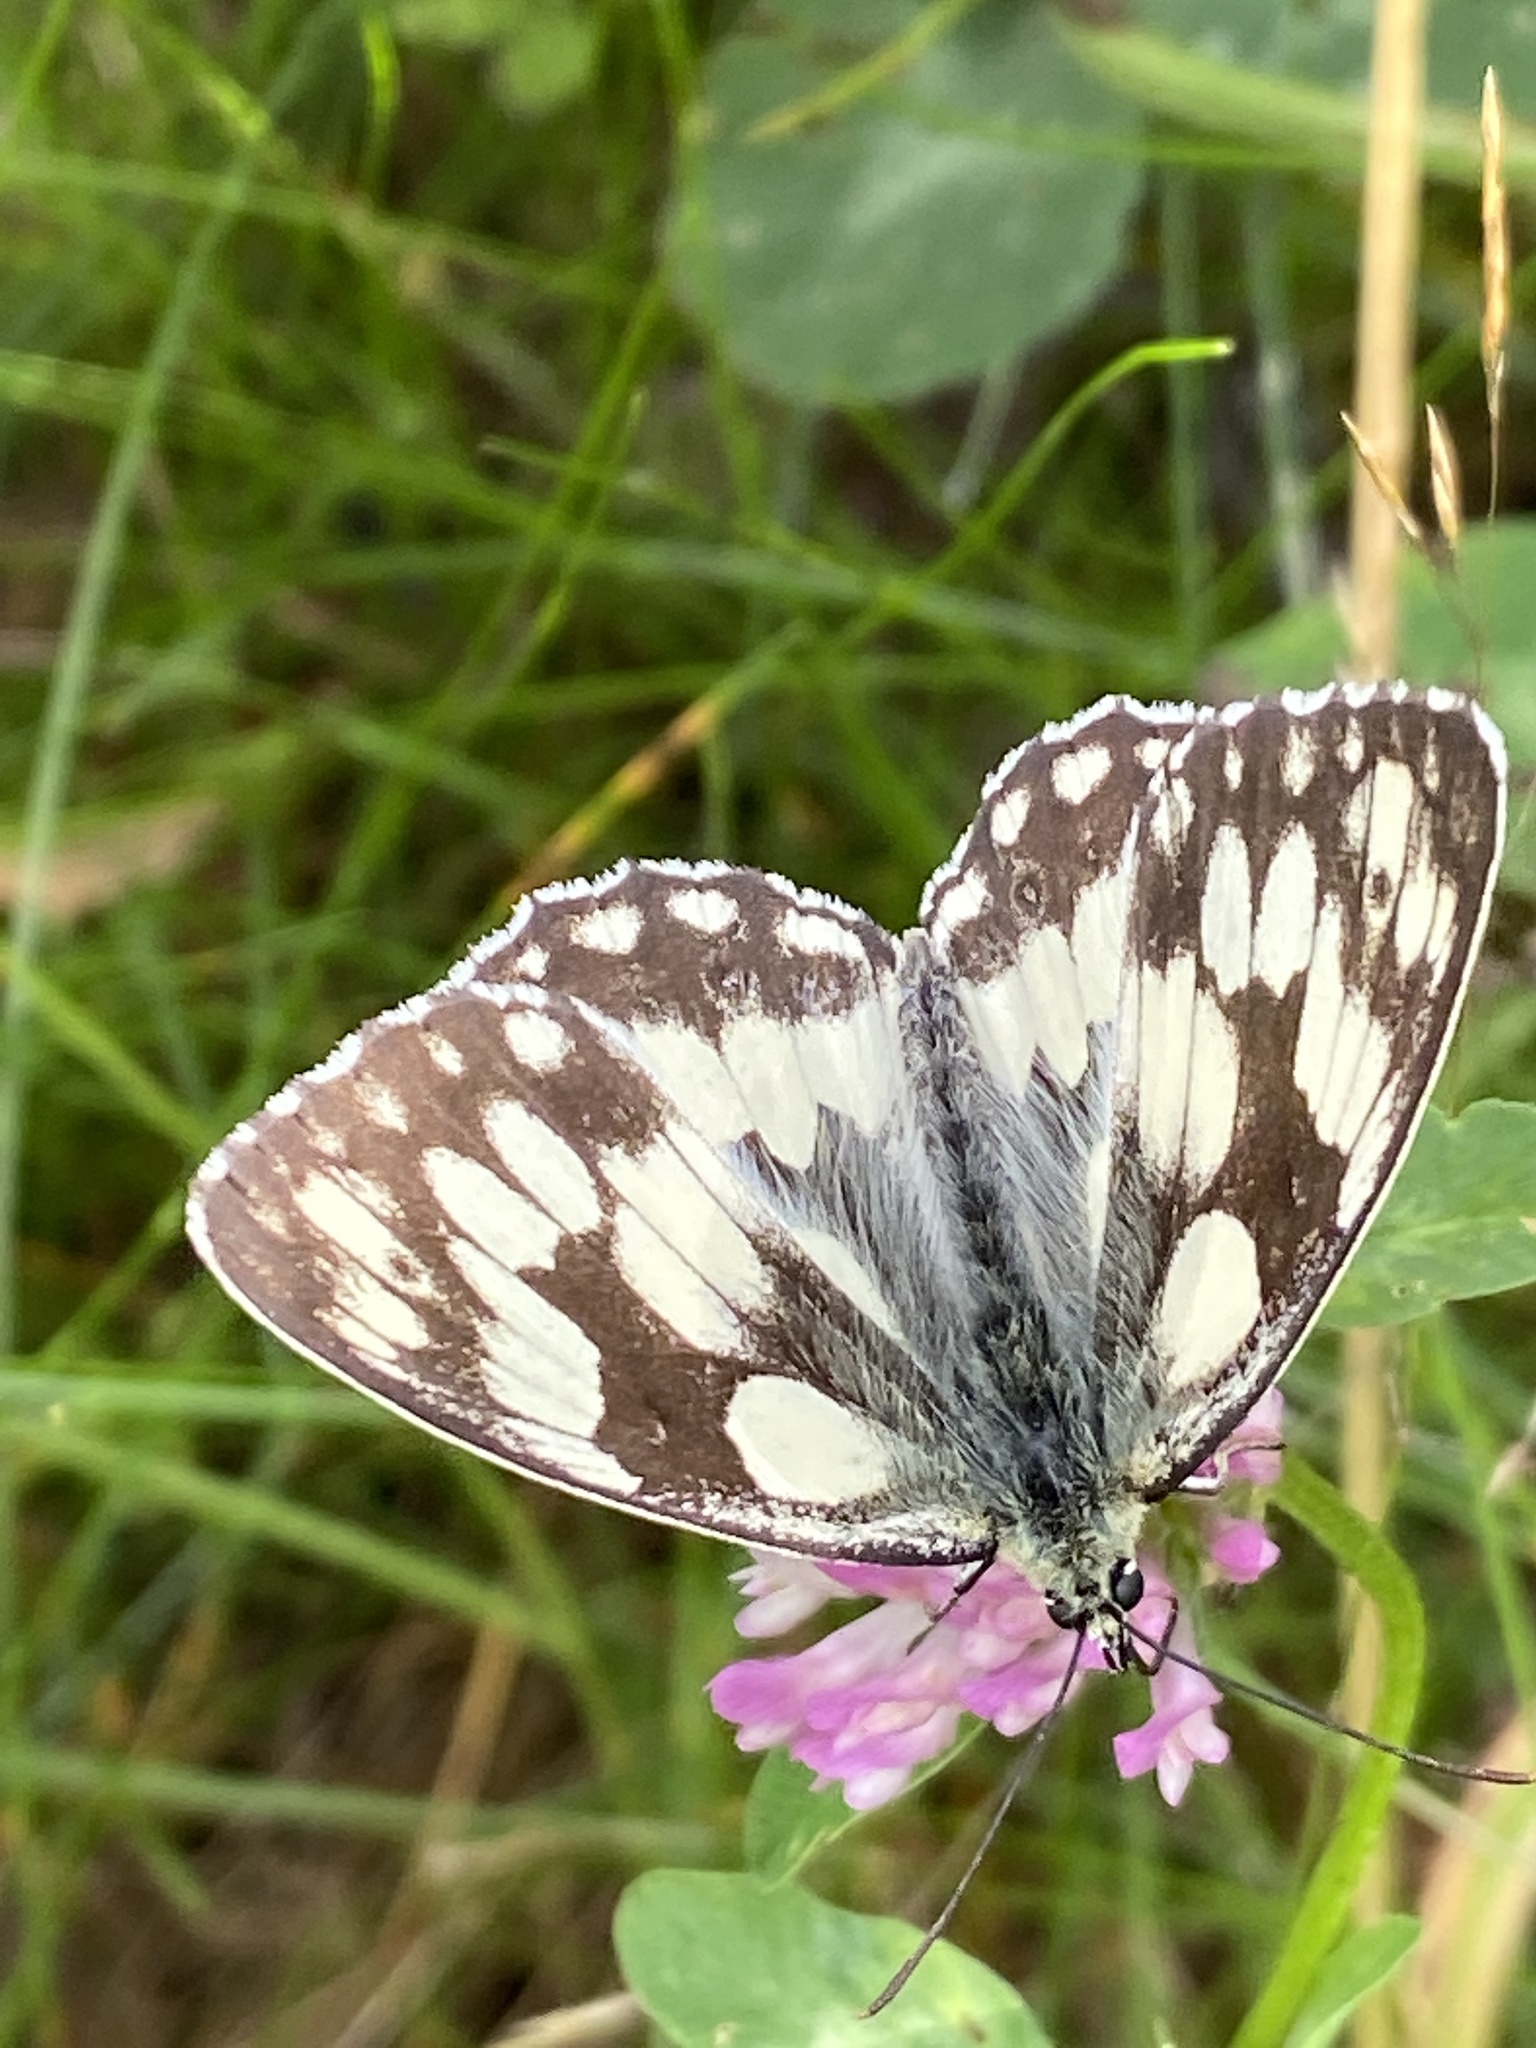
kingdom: Animalia
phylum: Arthropoda
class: Insecta
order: Lepidoptera
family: Nymphalidae
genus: Melanargia
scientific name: Melanargia galathea
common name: Marbled white
